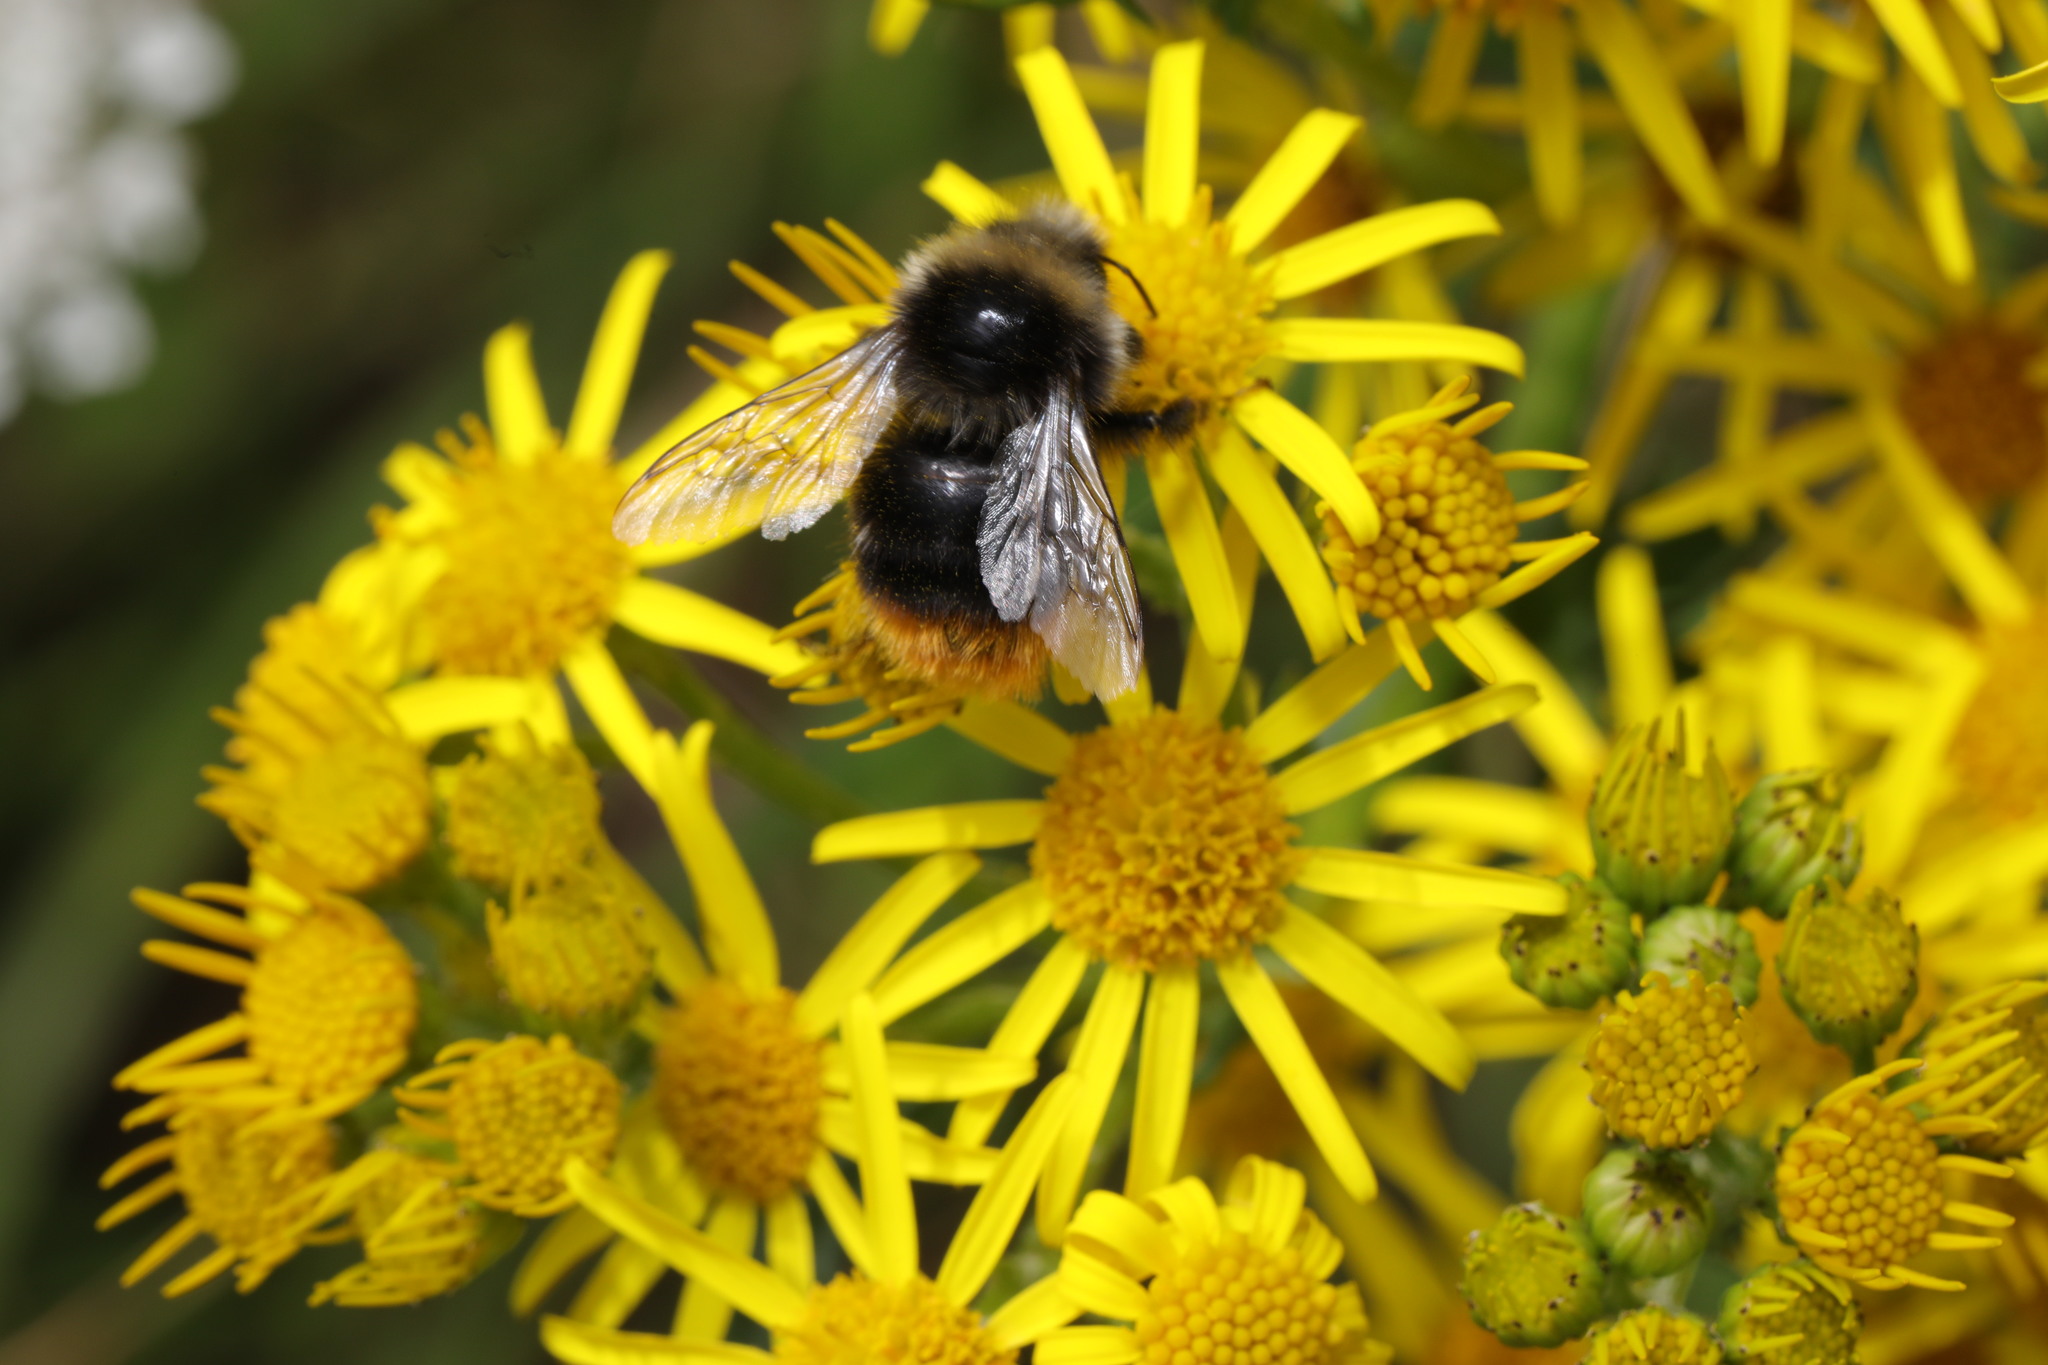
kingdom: Animalia
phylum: Arthropoda
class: Insecta
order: Hymenoptera
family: Apidae
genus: Bombus
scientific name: Bombus lapidarius
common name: Large red-tailed humble-bee
